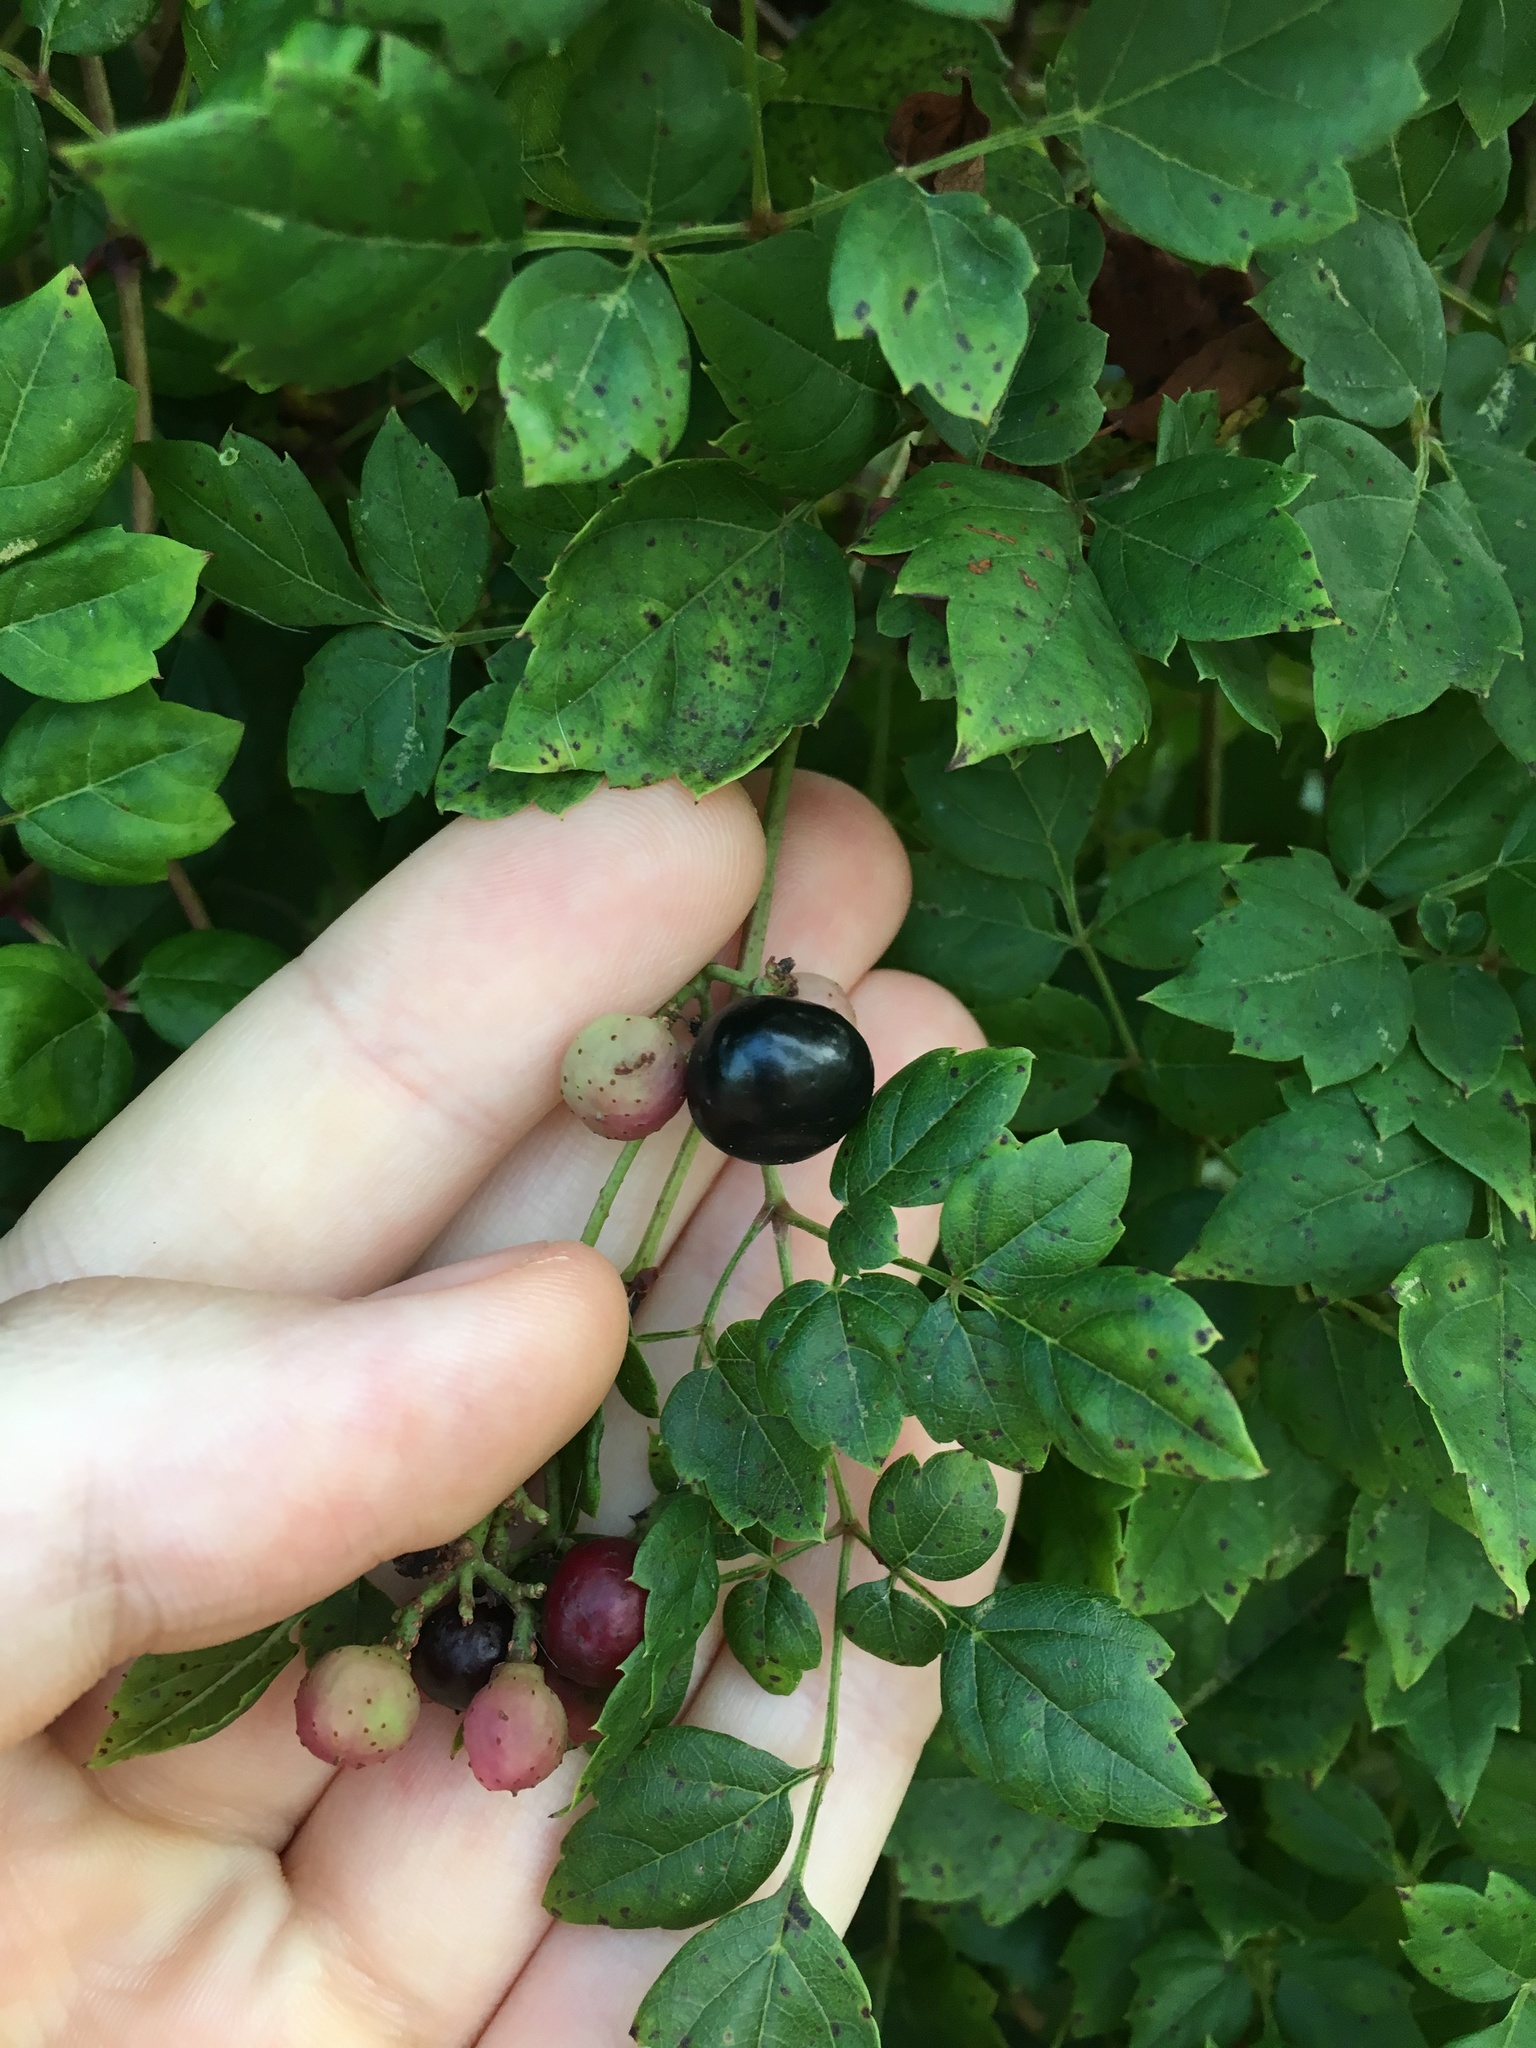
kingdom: Plantae
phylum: Tracheophyta
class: Magnoliopsida
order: Vitales
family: Vitaceae
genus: Nekemias
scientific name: Nekemias arborea
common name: Peppervine
